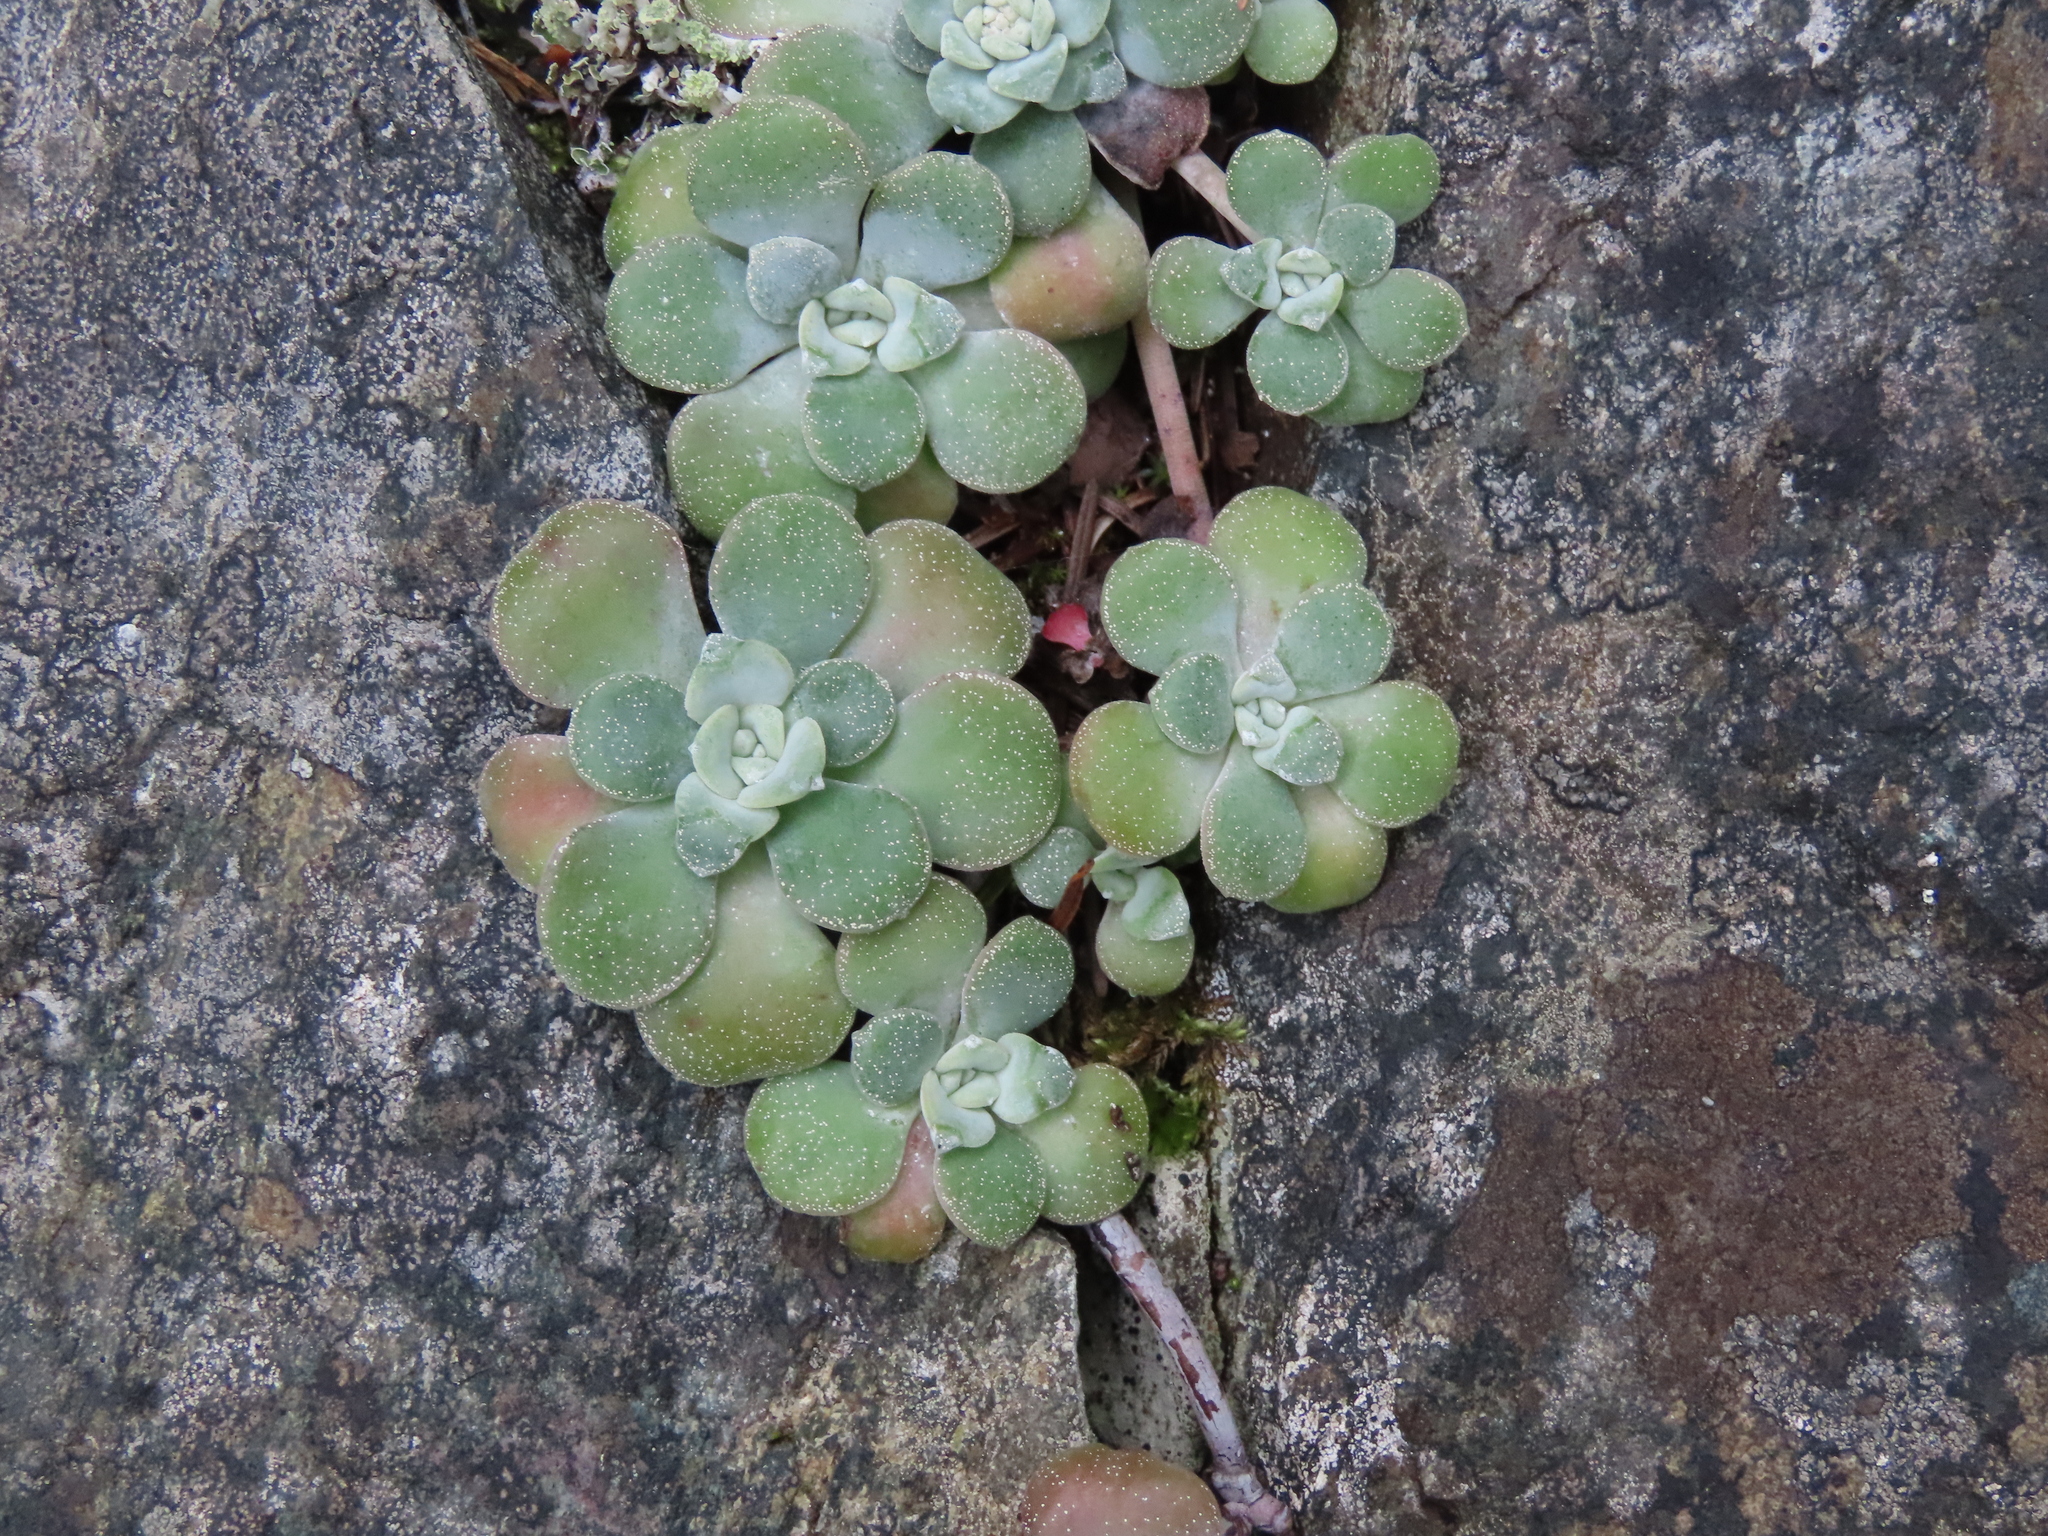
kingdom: Plantae
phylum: Tracheophyta
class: Magnoliopsida
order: Saxifragales
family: Crassulaceae
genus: Sedum
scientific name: Sedum spathulifolium
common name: Colorado stonecrop
